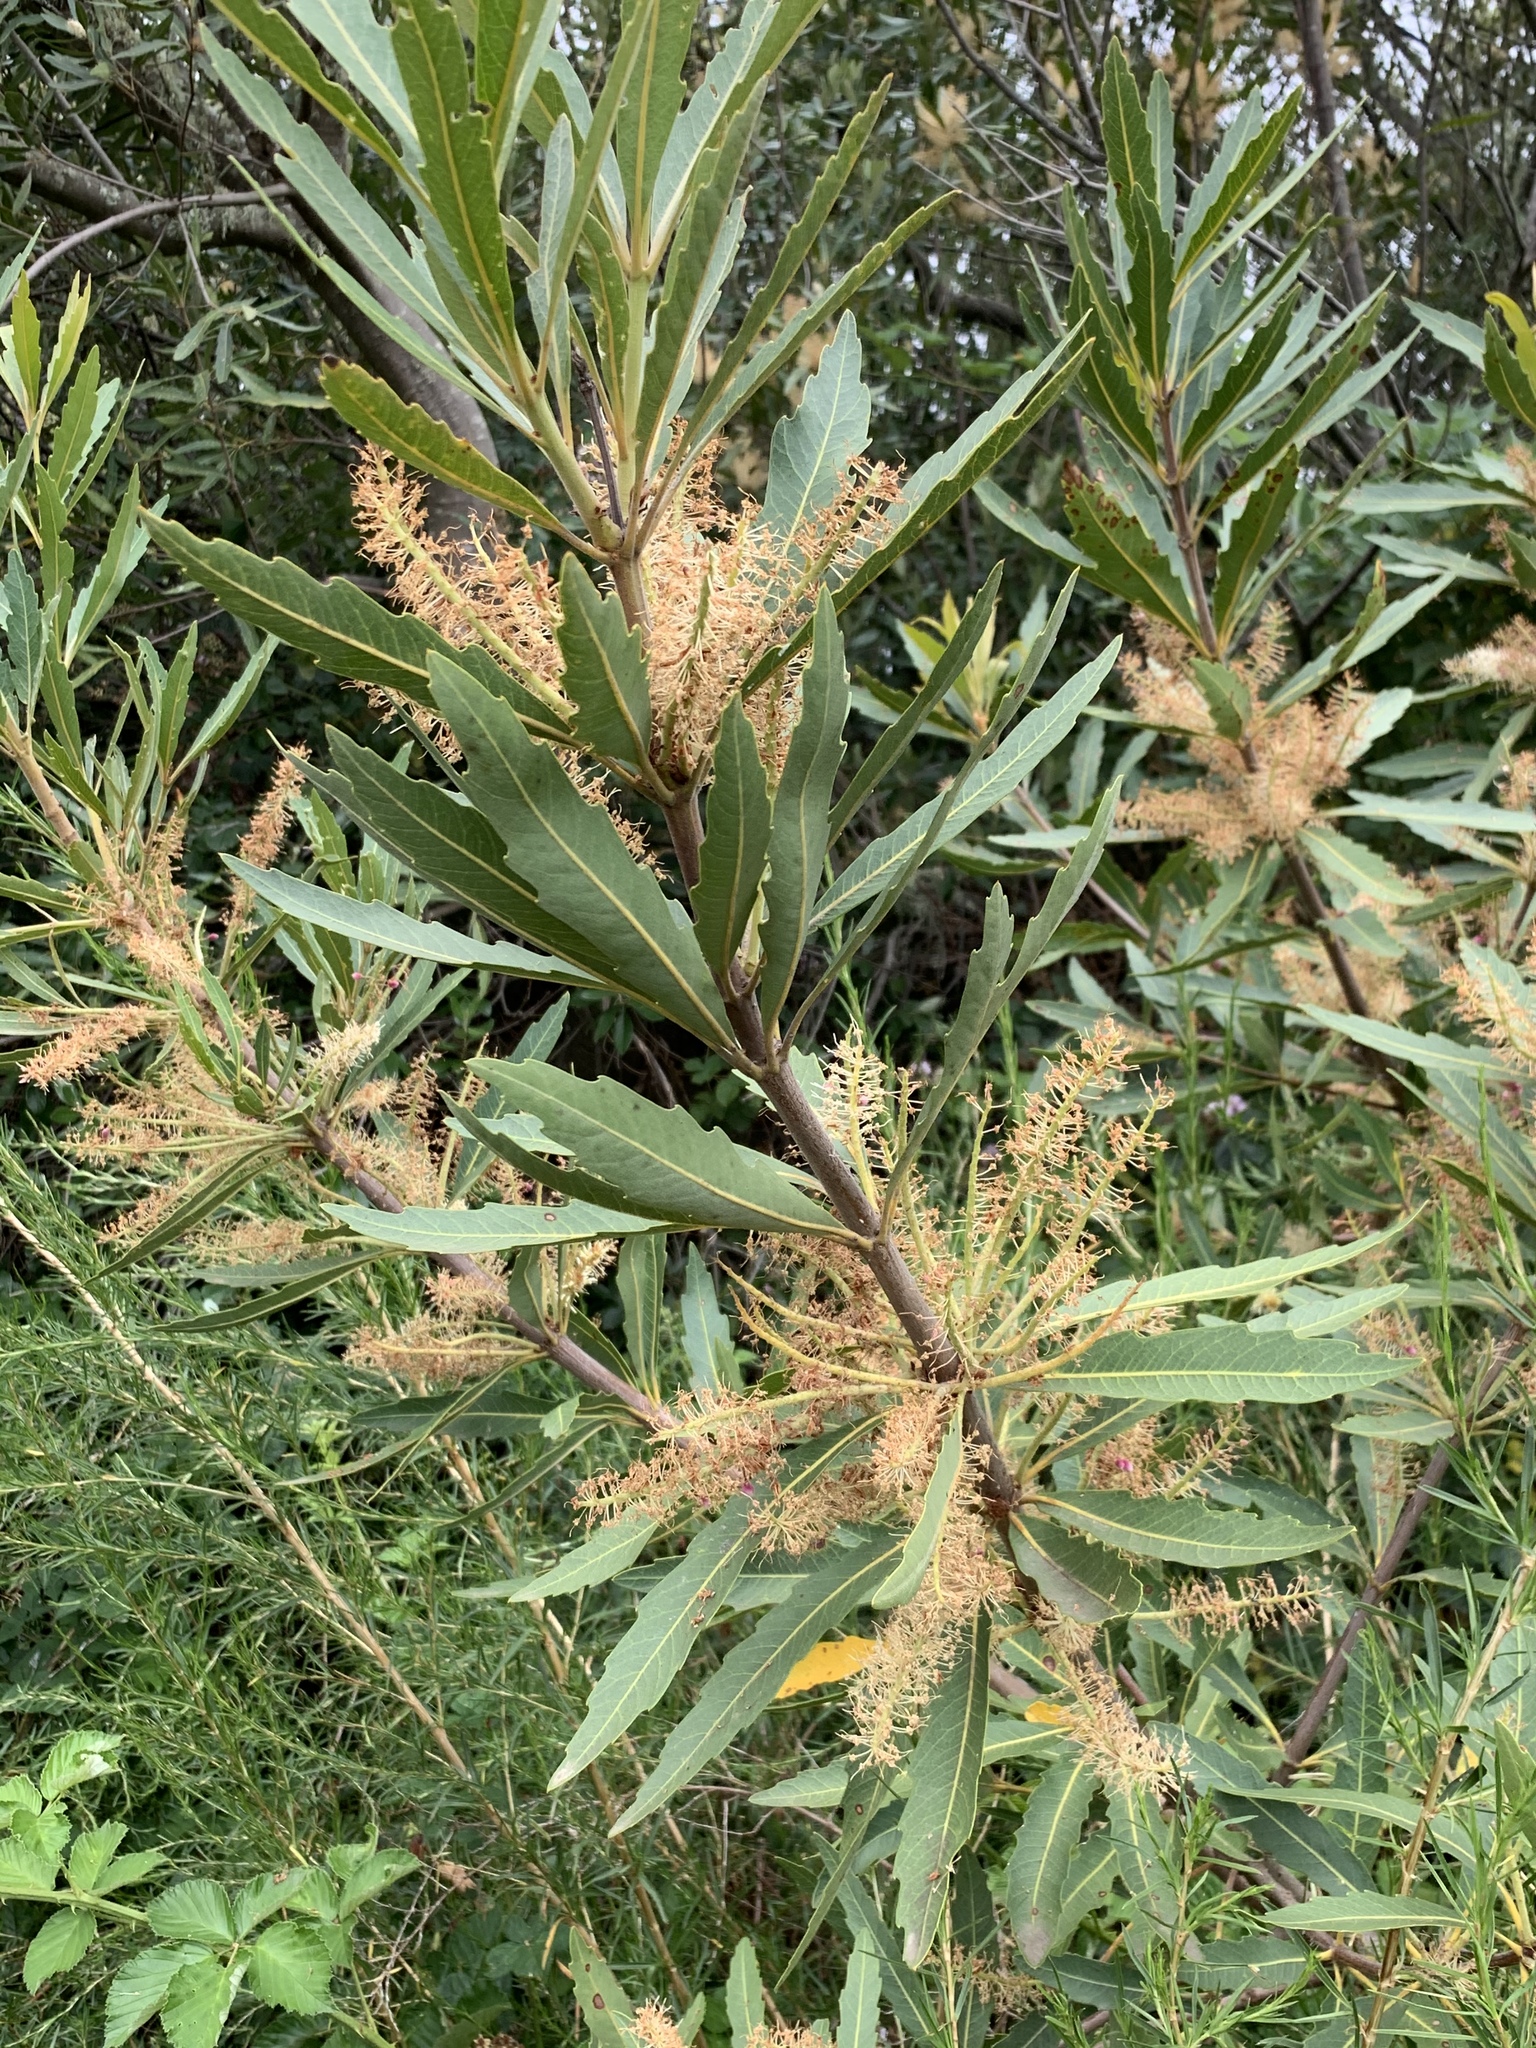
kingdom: Plantae
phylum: Tracheophyta
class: Magnoliopsida
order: Proteales
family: Proteaceae
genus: Brabejum
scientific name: Brabejum stellatifolium
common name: Wild almond
